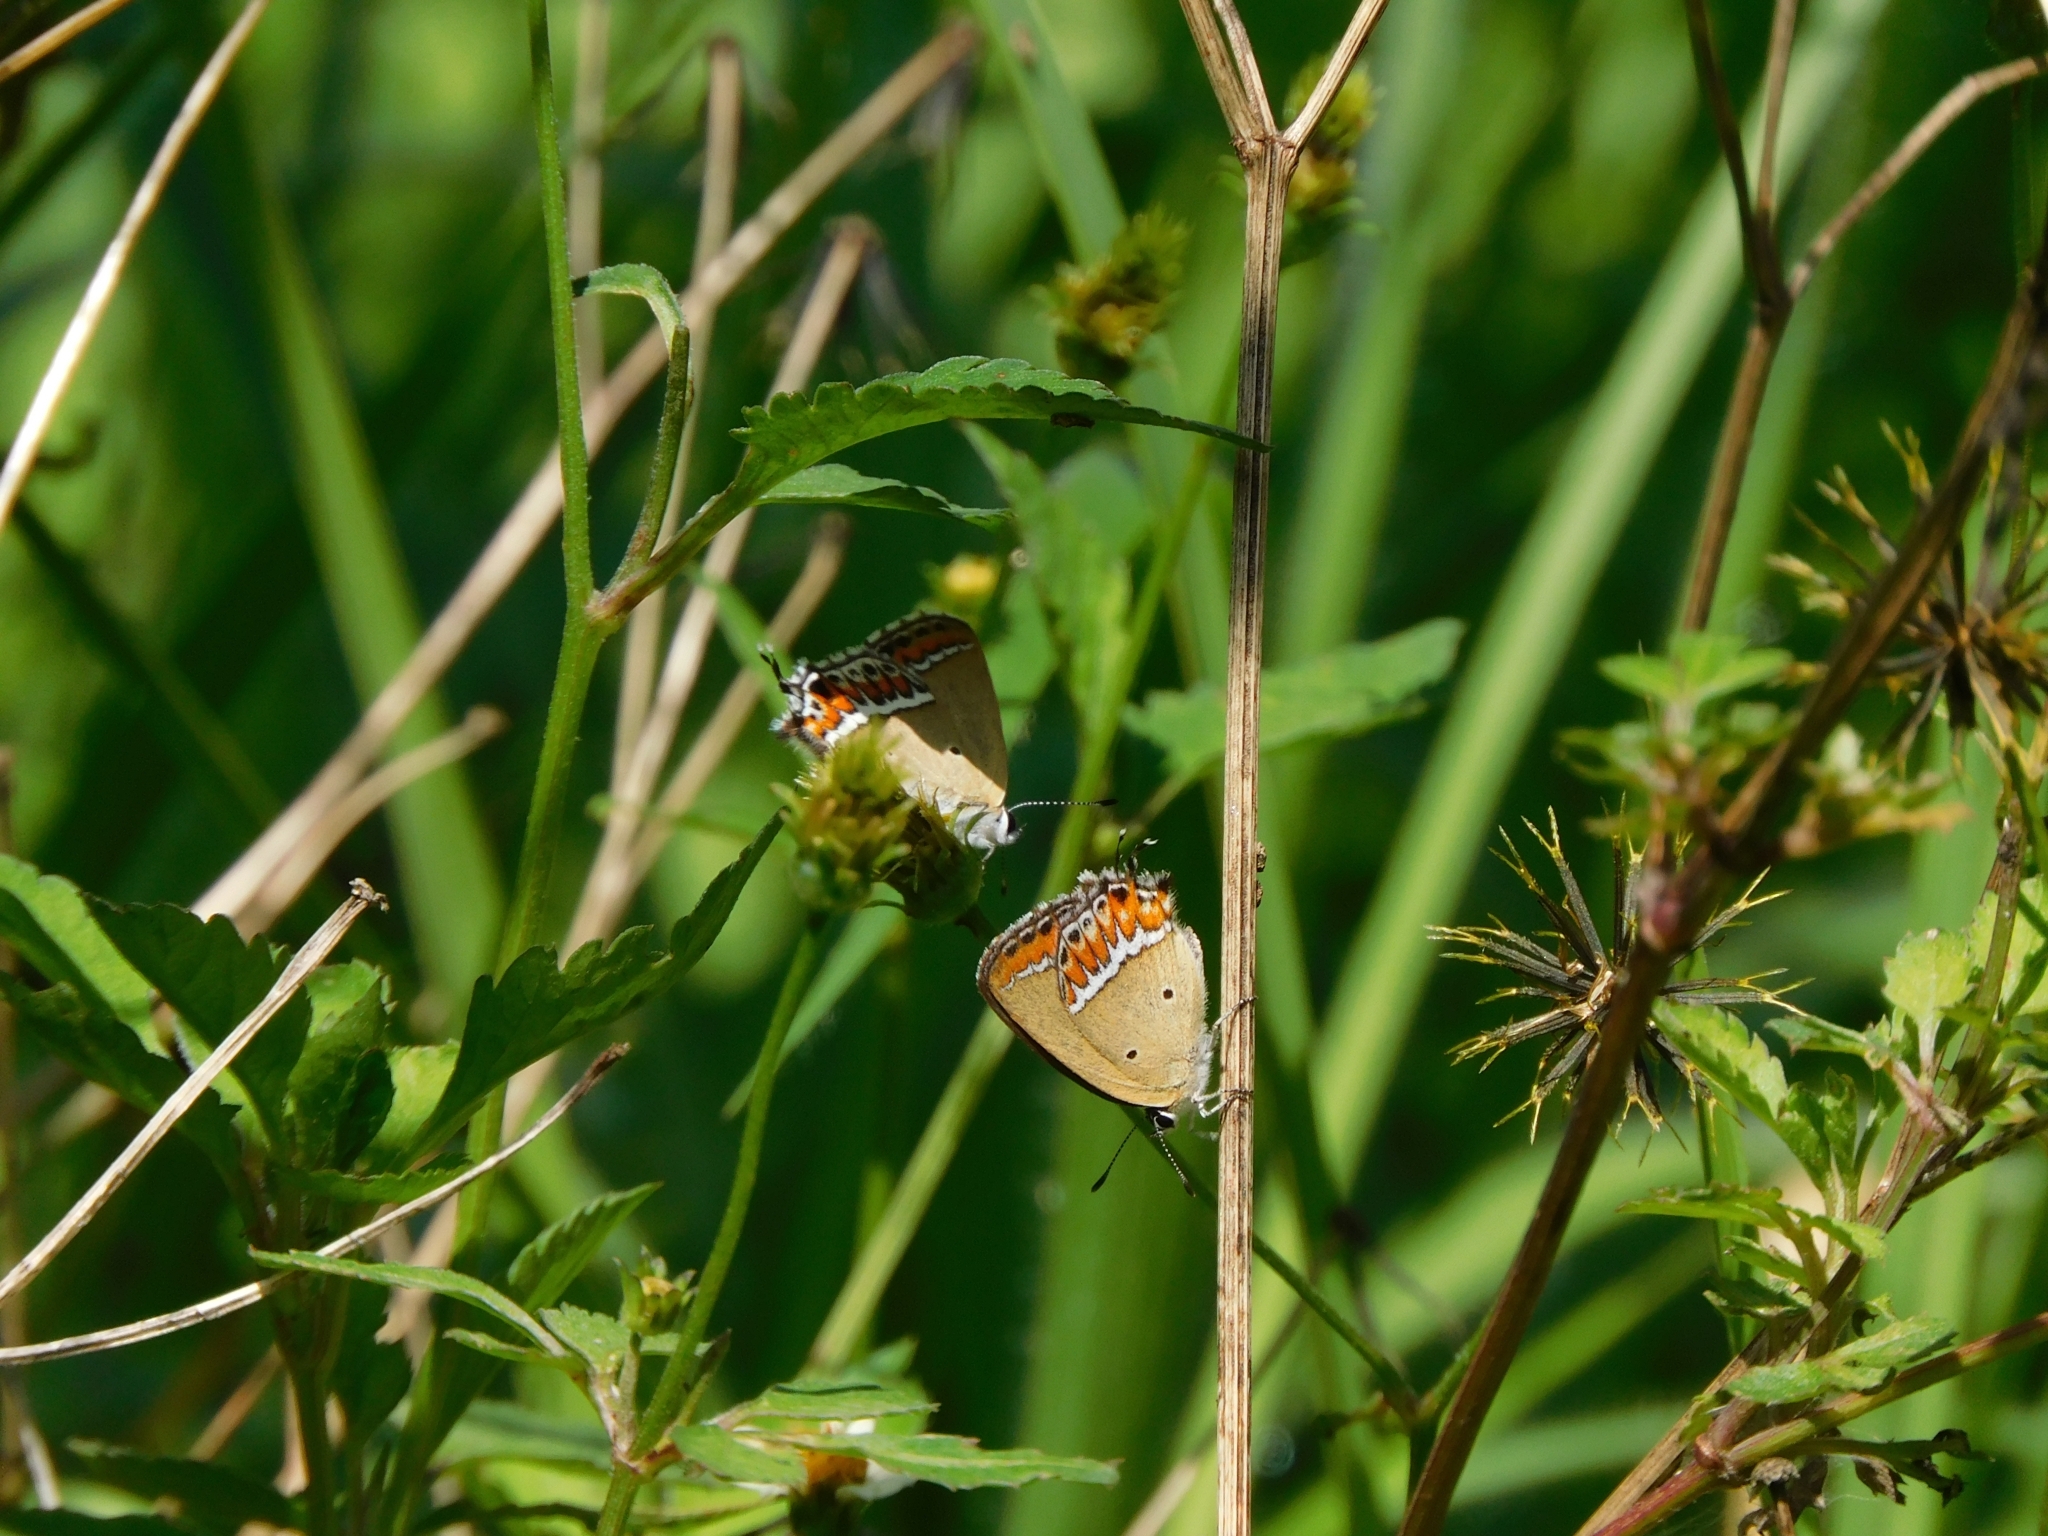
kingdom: Animalia
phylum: Arthropoda
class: Insecta
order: Lepidoptera
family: Lycaenidae
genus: Heliophorus
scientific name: Heliophorus sena
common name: Sorrel sapphire
